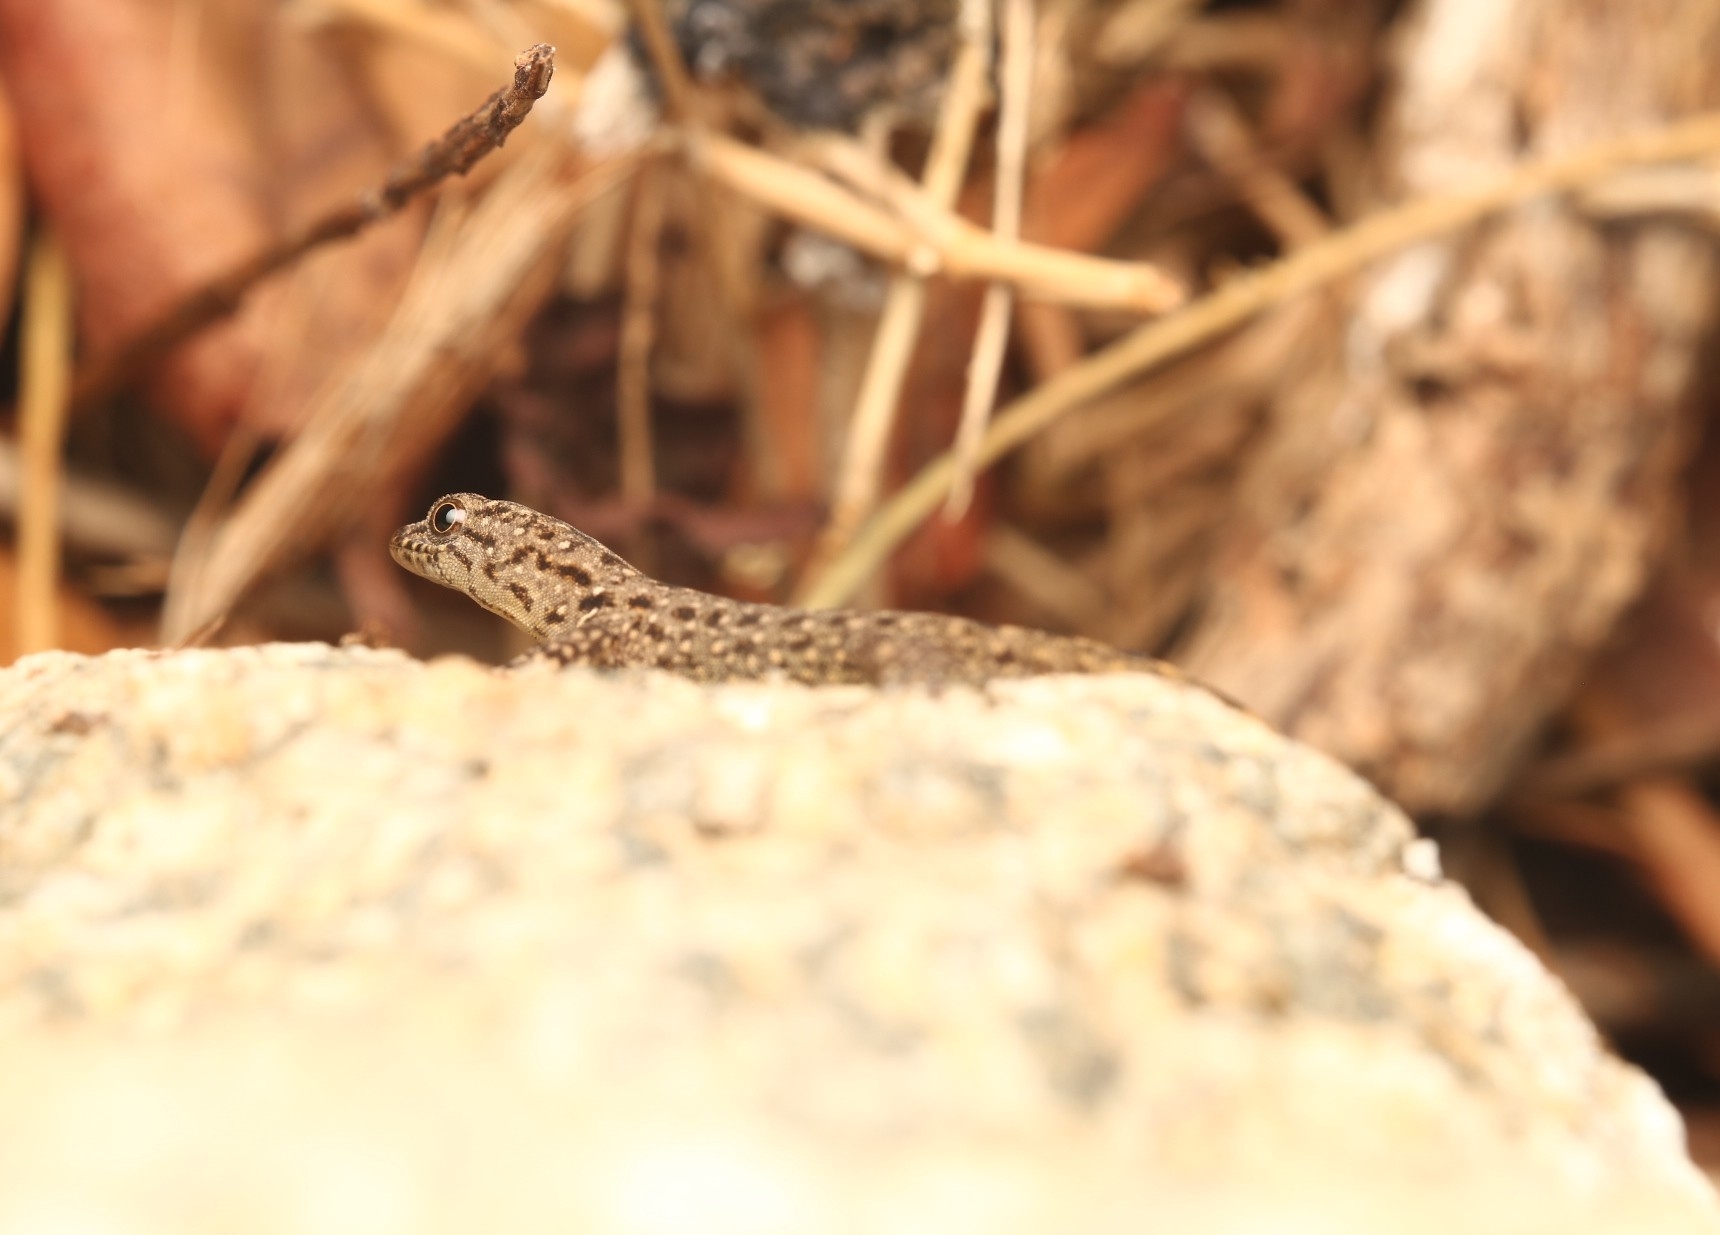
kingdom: Animalia
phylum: Chordata
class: Squamata
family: Sphaerodactylidae
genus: Gonatodes
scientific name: Gonatodes vittatus
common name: Wiegmann's striped gecko
